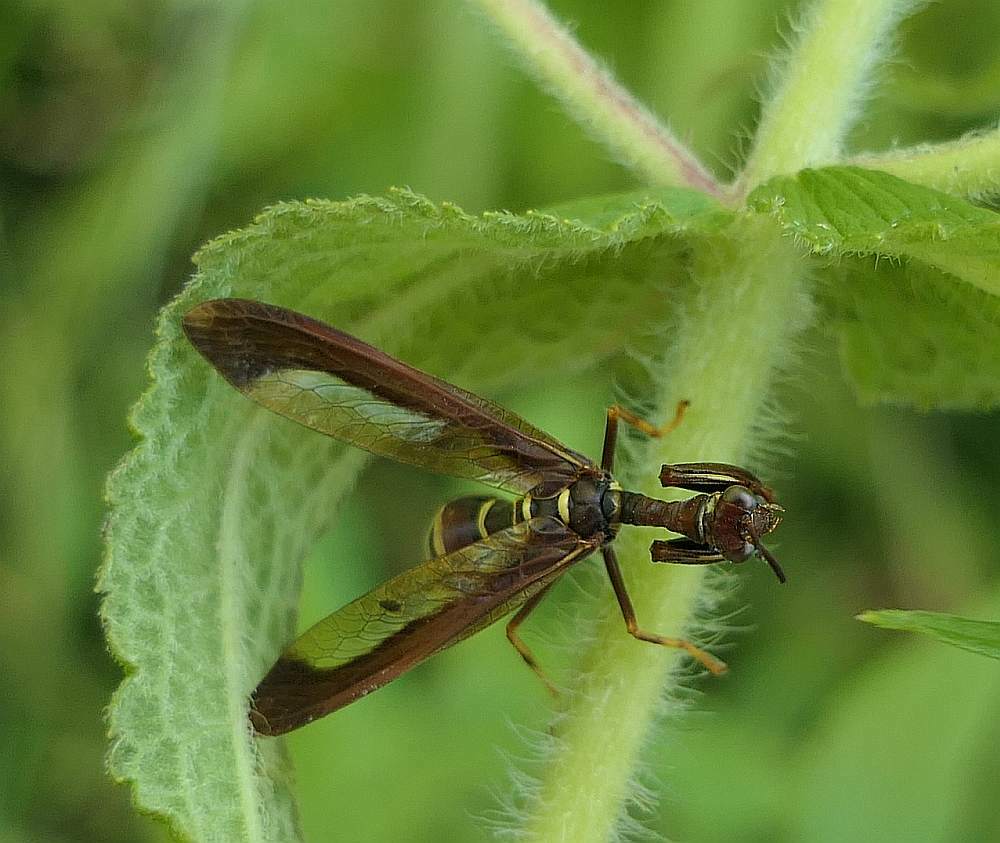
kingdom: Animalia
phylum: Arthropoda
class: Insecta
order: Neuroptera
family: Mantispidae
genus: Climaciella
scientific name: Climaciella brunnea
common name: Brown wasp mantidfly
